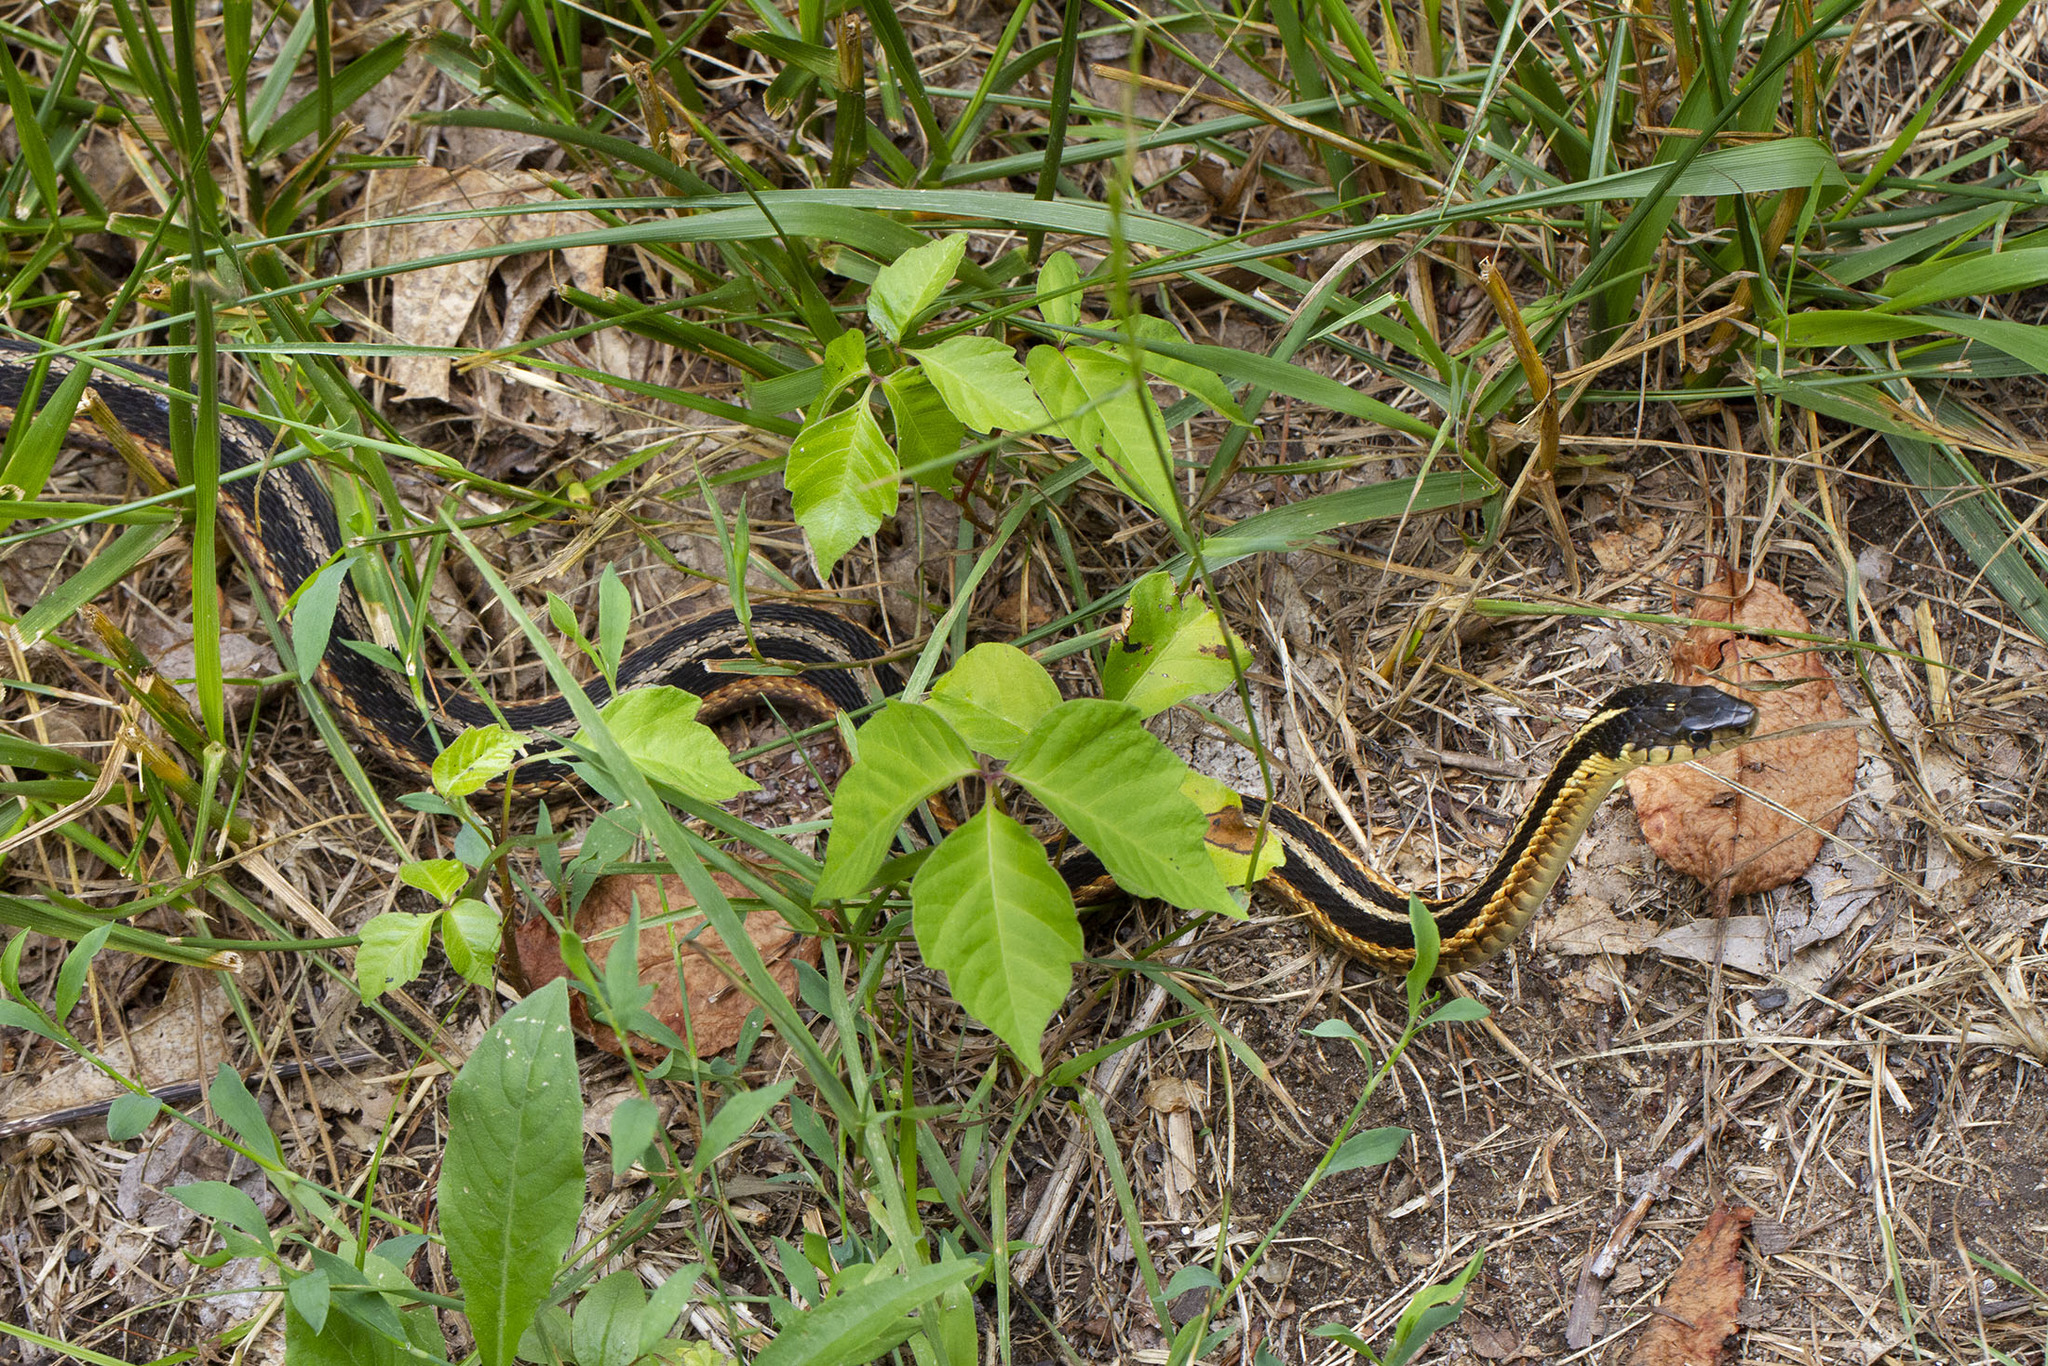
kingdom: Animalia
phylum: Chordata
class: Squamata
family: Colubridae
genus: Thamnophis
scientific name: Thamnophis sirtalis
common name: Common garter snake
